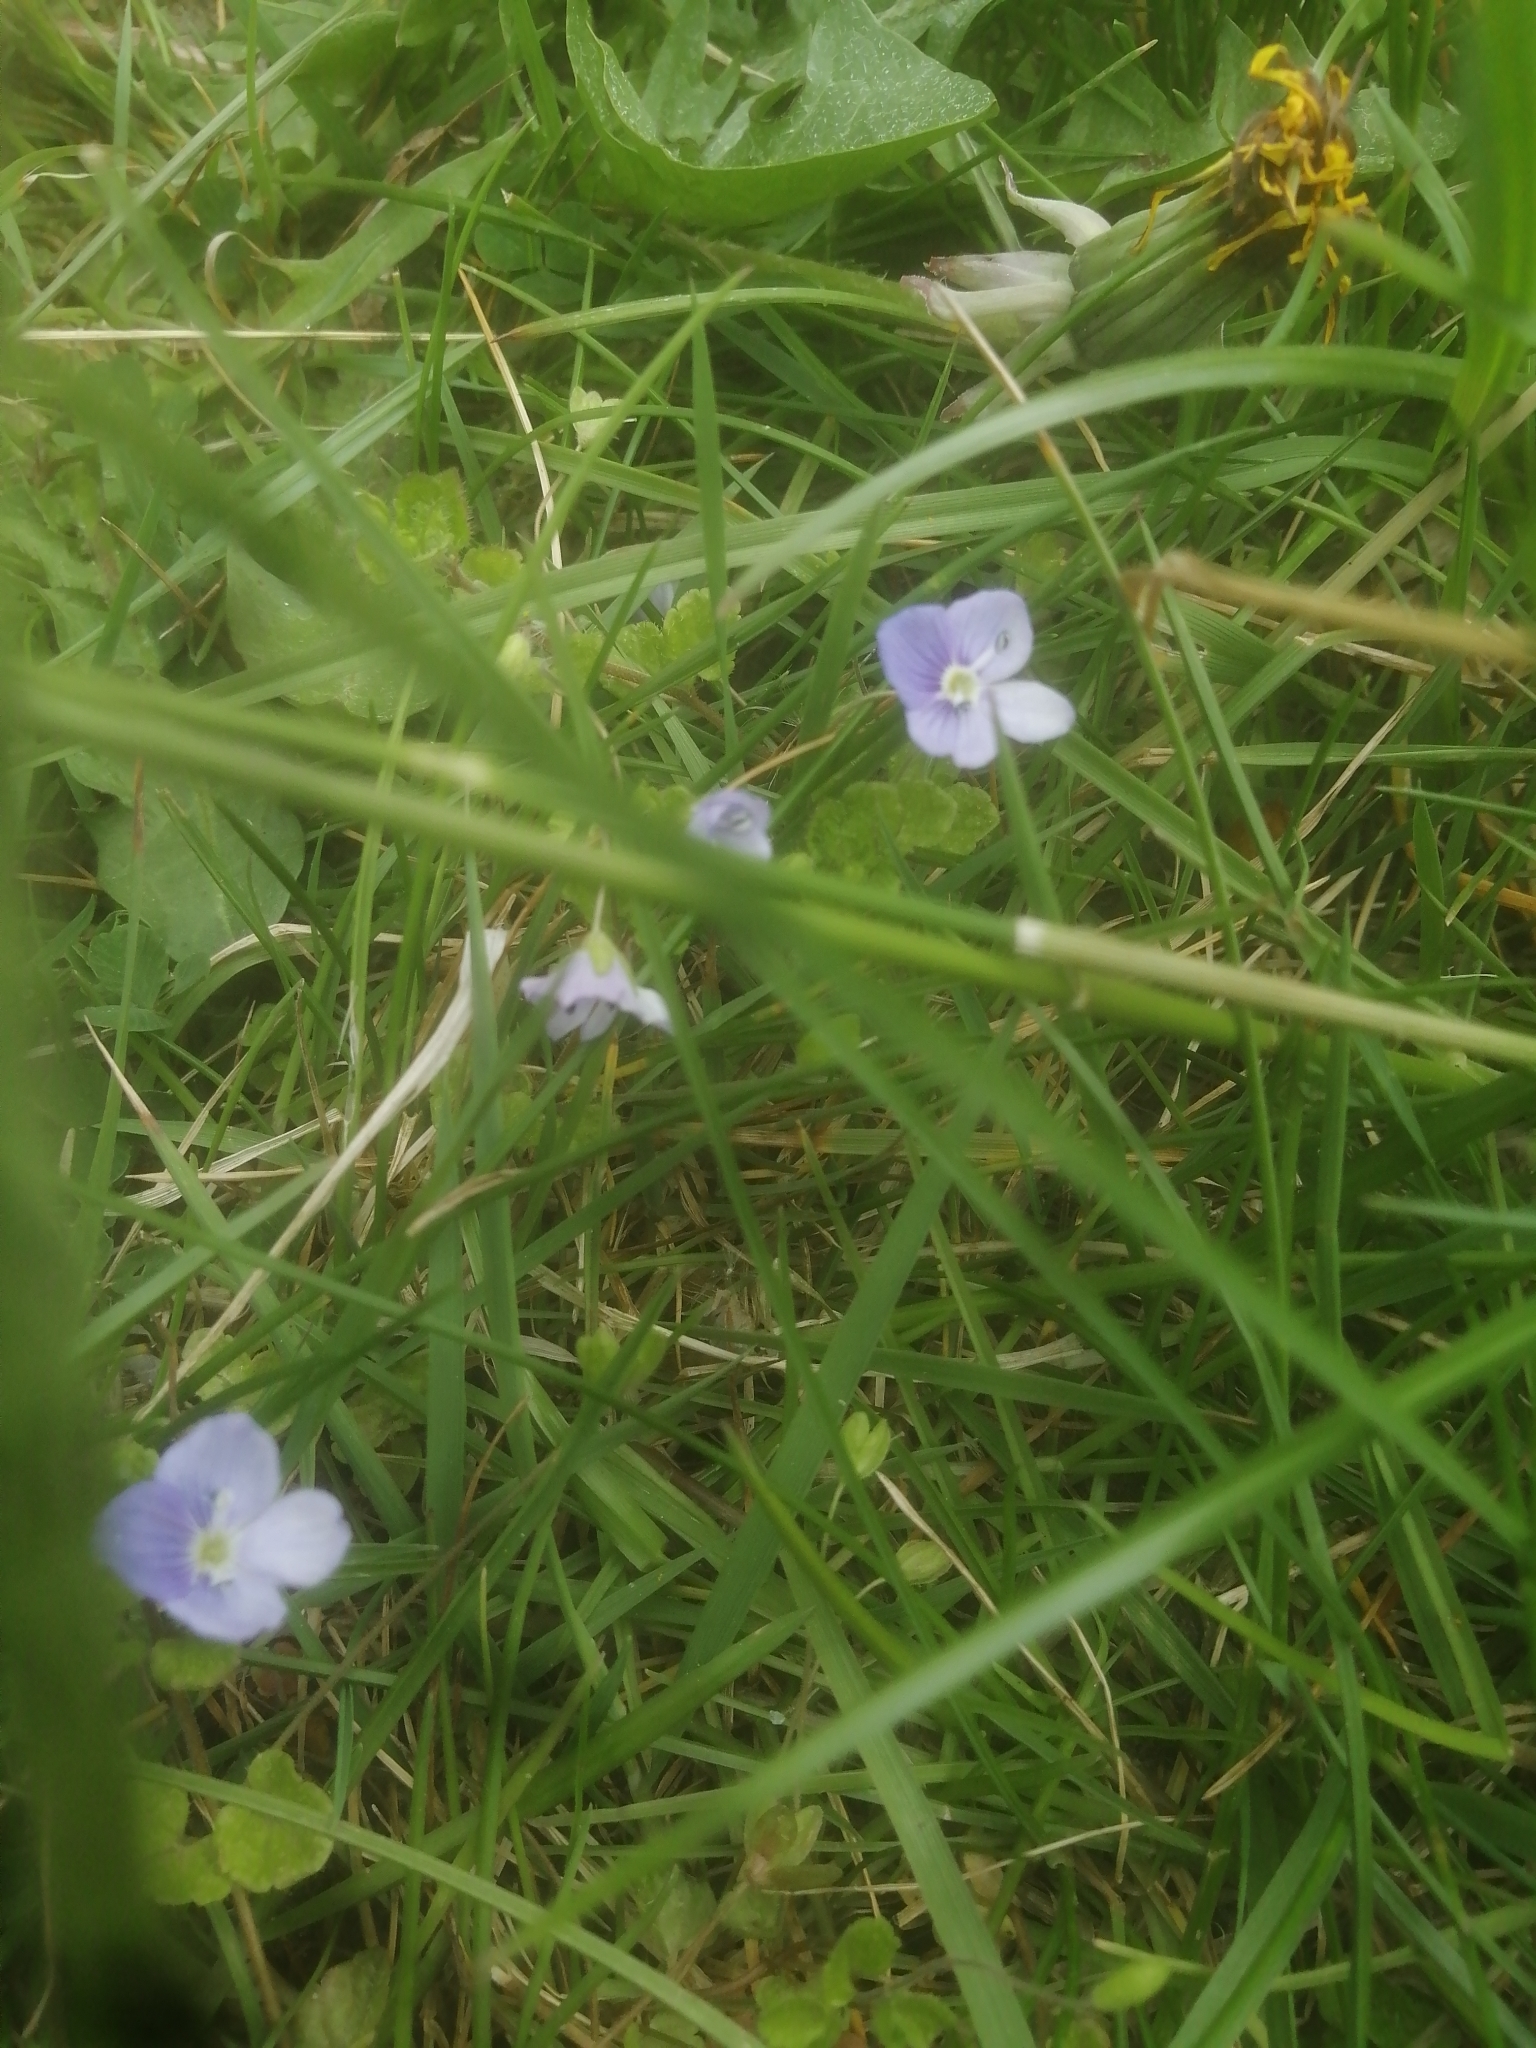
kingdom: Plantae
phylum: Tracheophyta
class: Magnoliopsida
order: Lamiales
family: Plantaginaceae
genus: Veronica
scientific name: Veronica filiformis
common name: Slender speedwell
